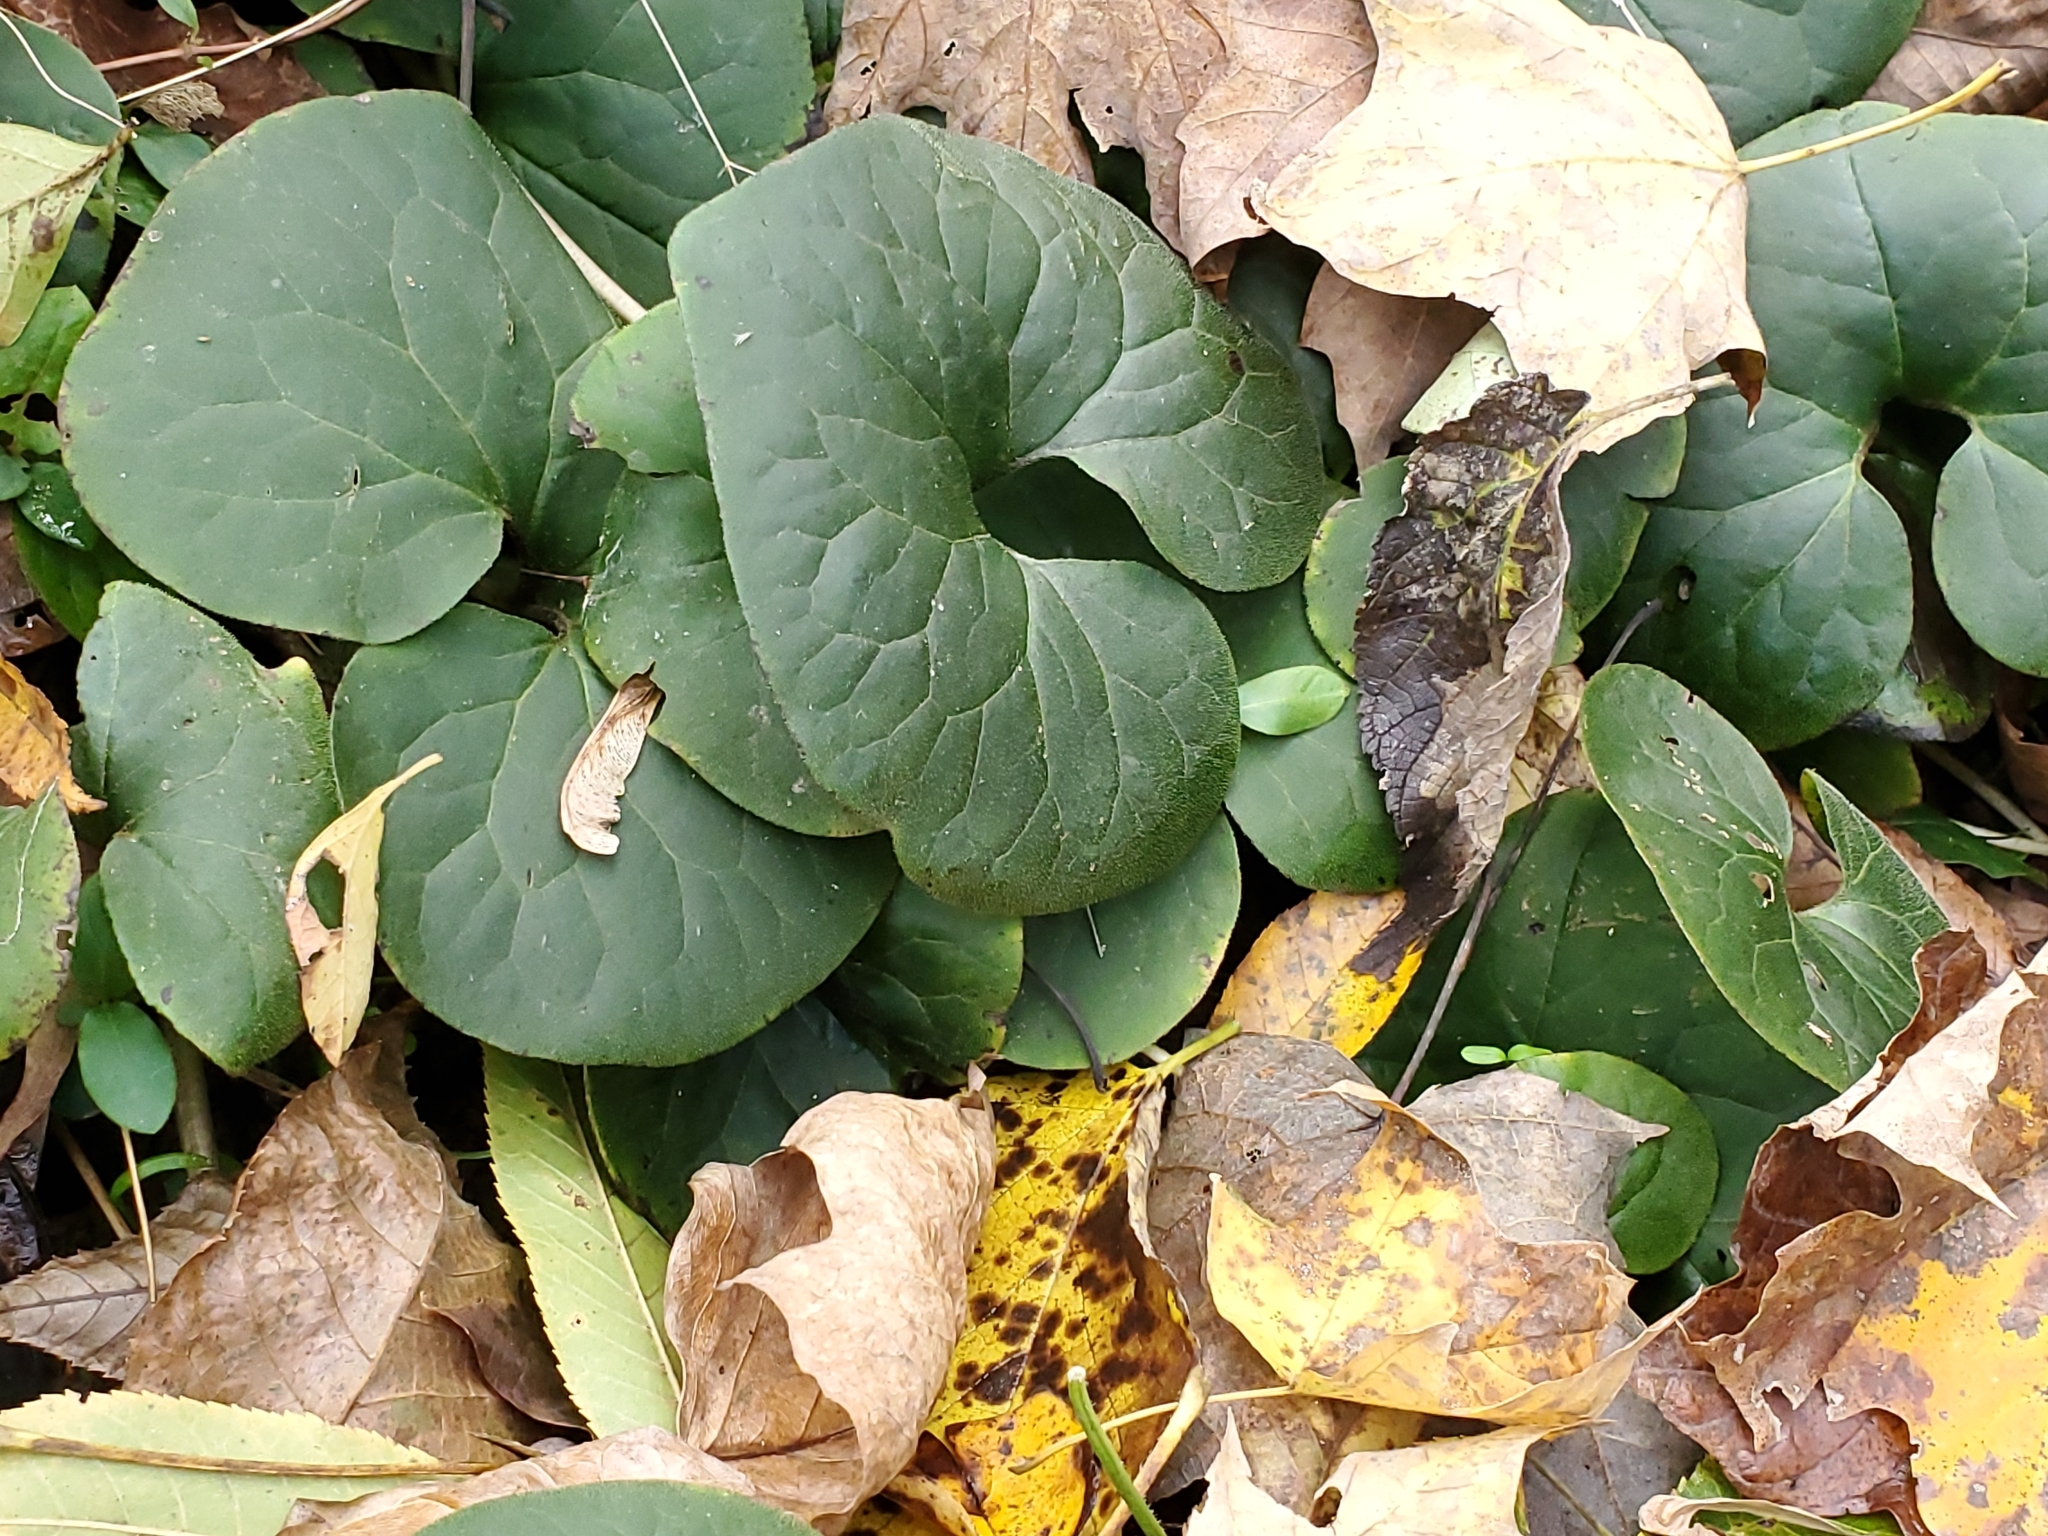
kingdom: Plantae
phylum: Tracheophyta
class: Magnoliopsida
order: Piperales
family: Aristolochiaceae
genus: Asarum
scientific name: Asarum canadense
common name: Wild ginger
